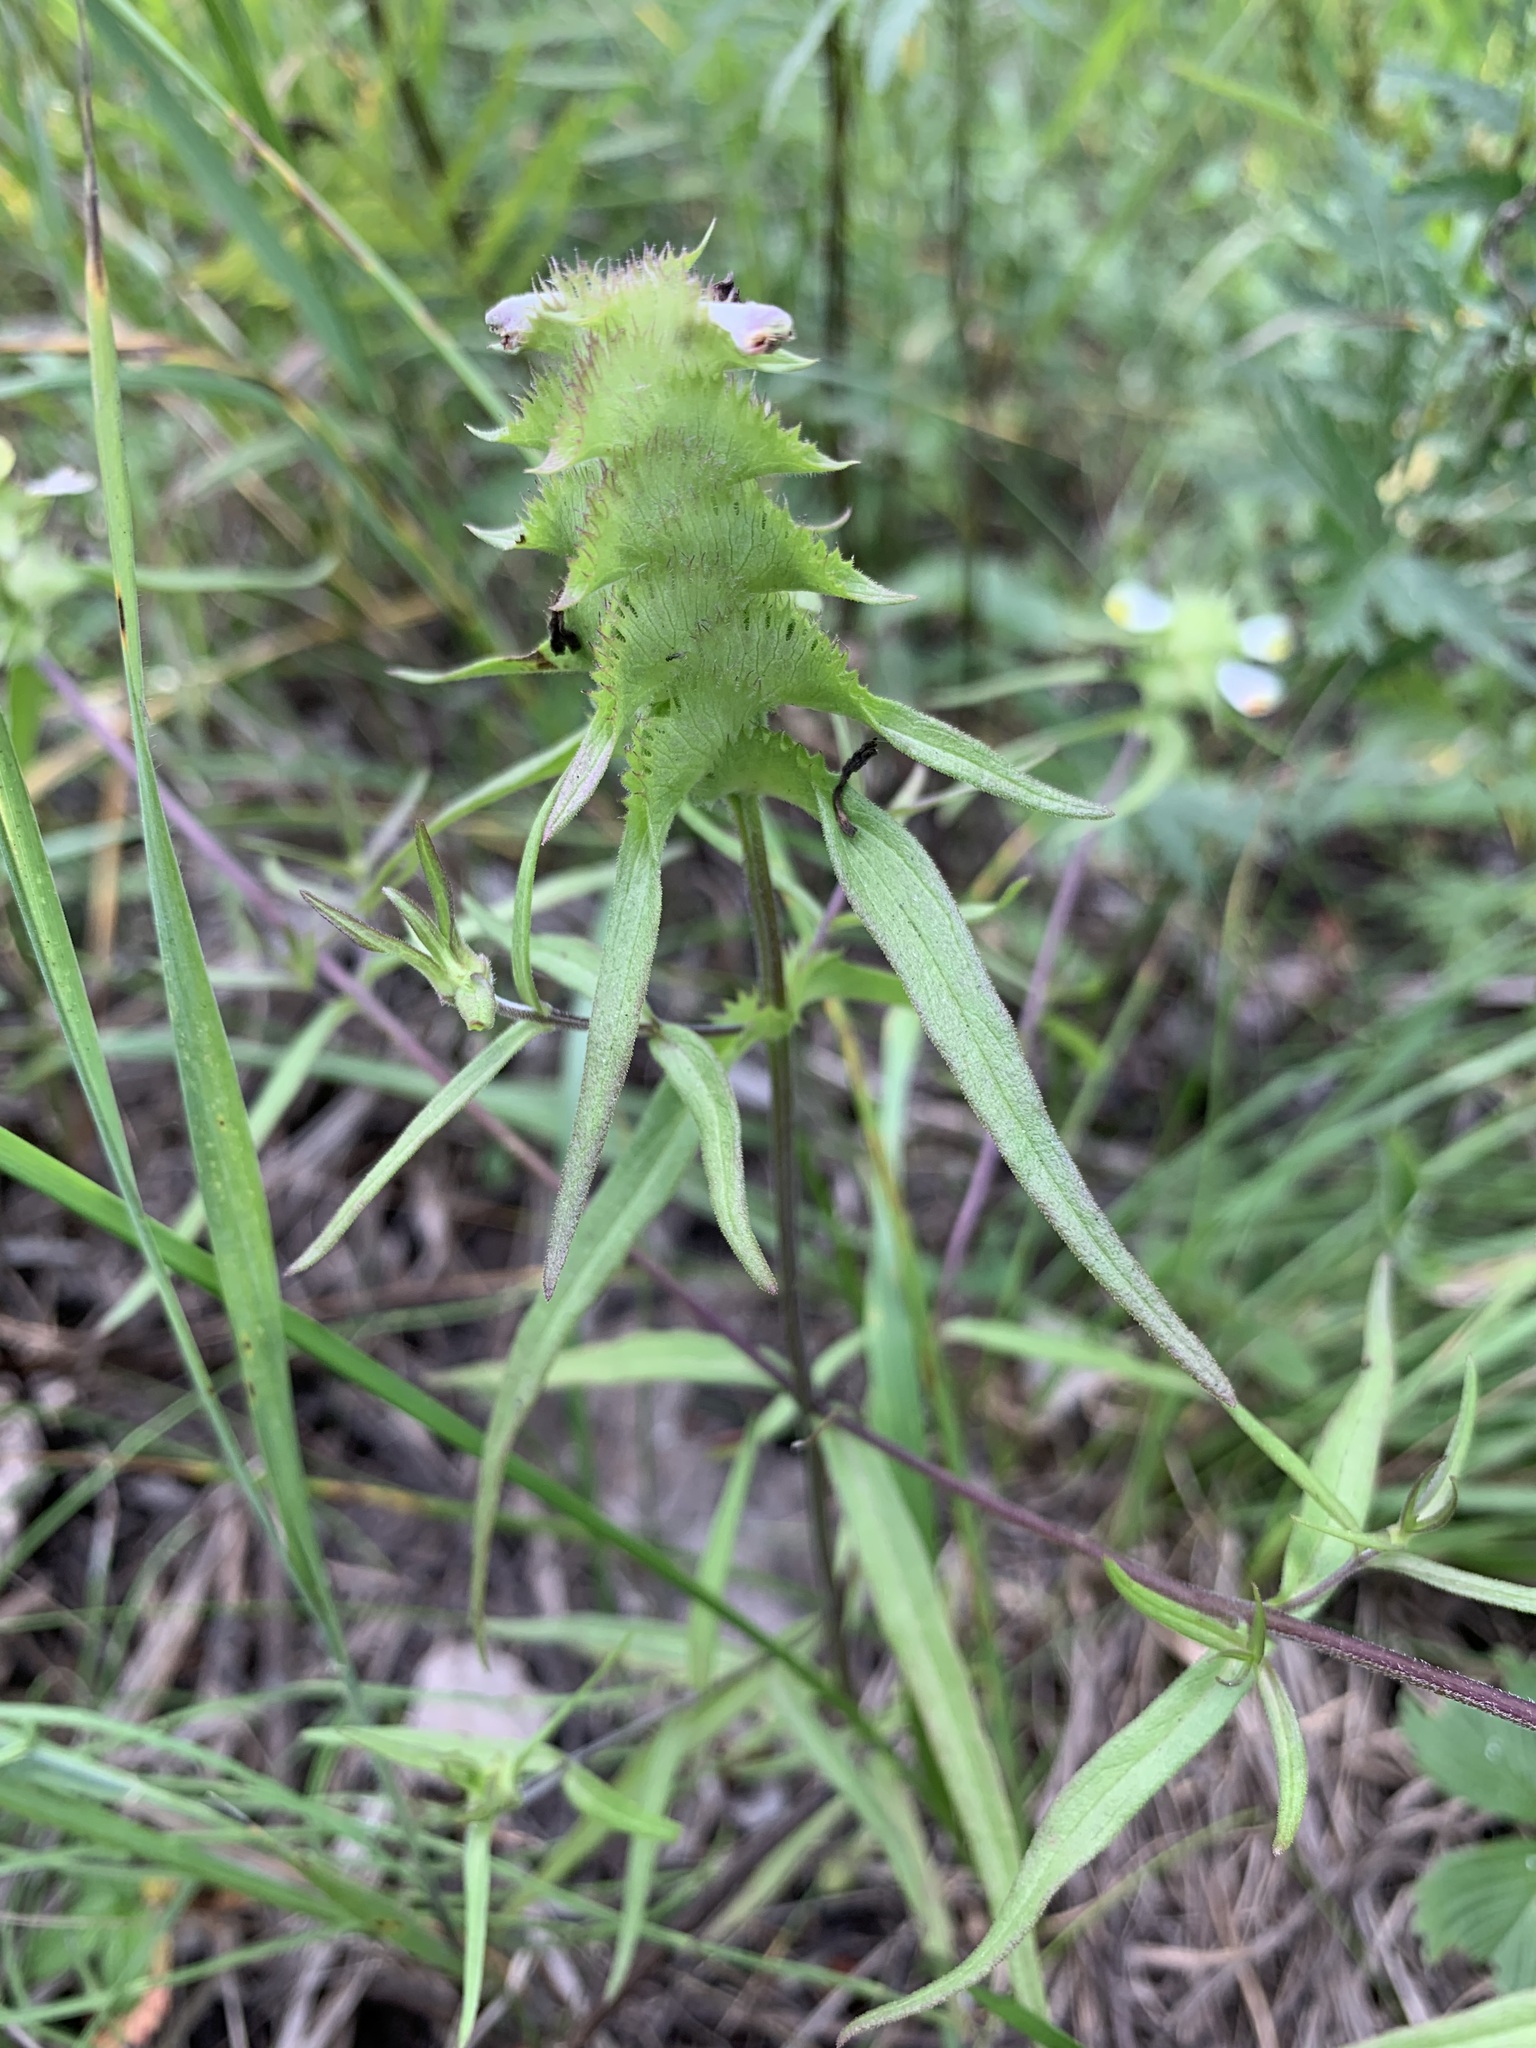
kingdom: Plantae
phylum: Tracheophyta
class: Magnoliopsida
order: Lamiales
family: Orobanchaceae
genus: Melampyrum
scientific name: Melampyrum cristatum
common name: Crested cow-wheat
